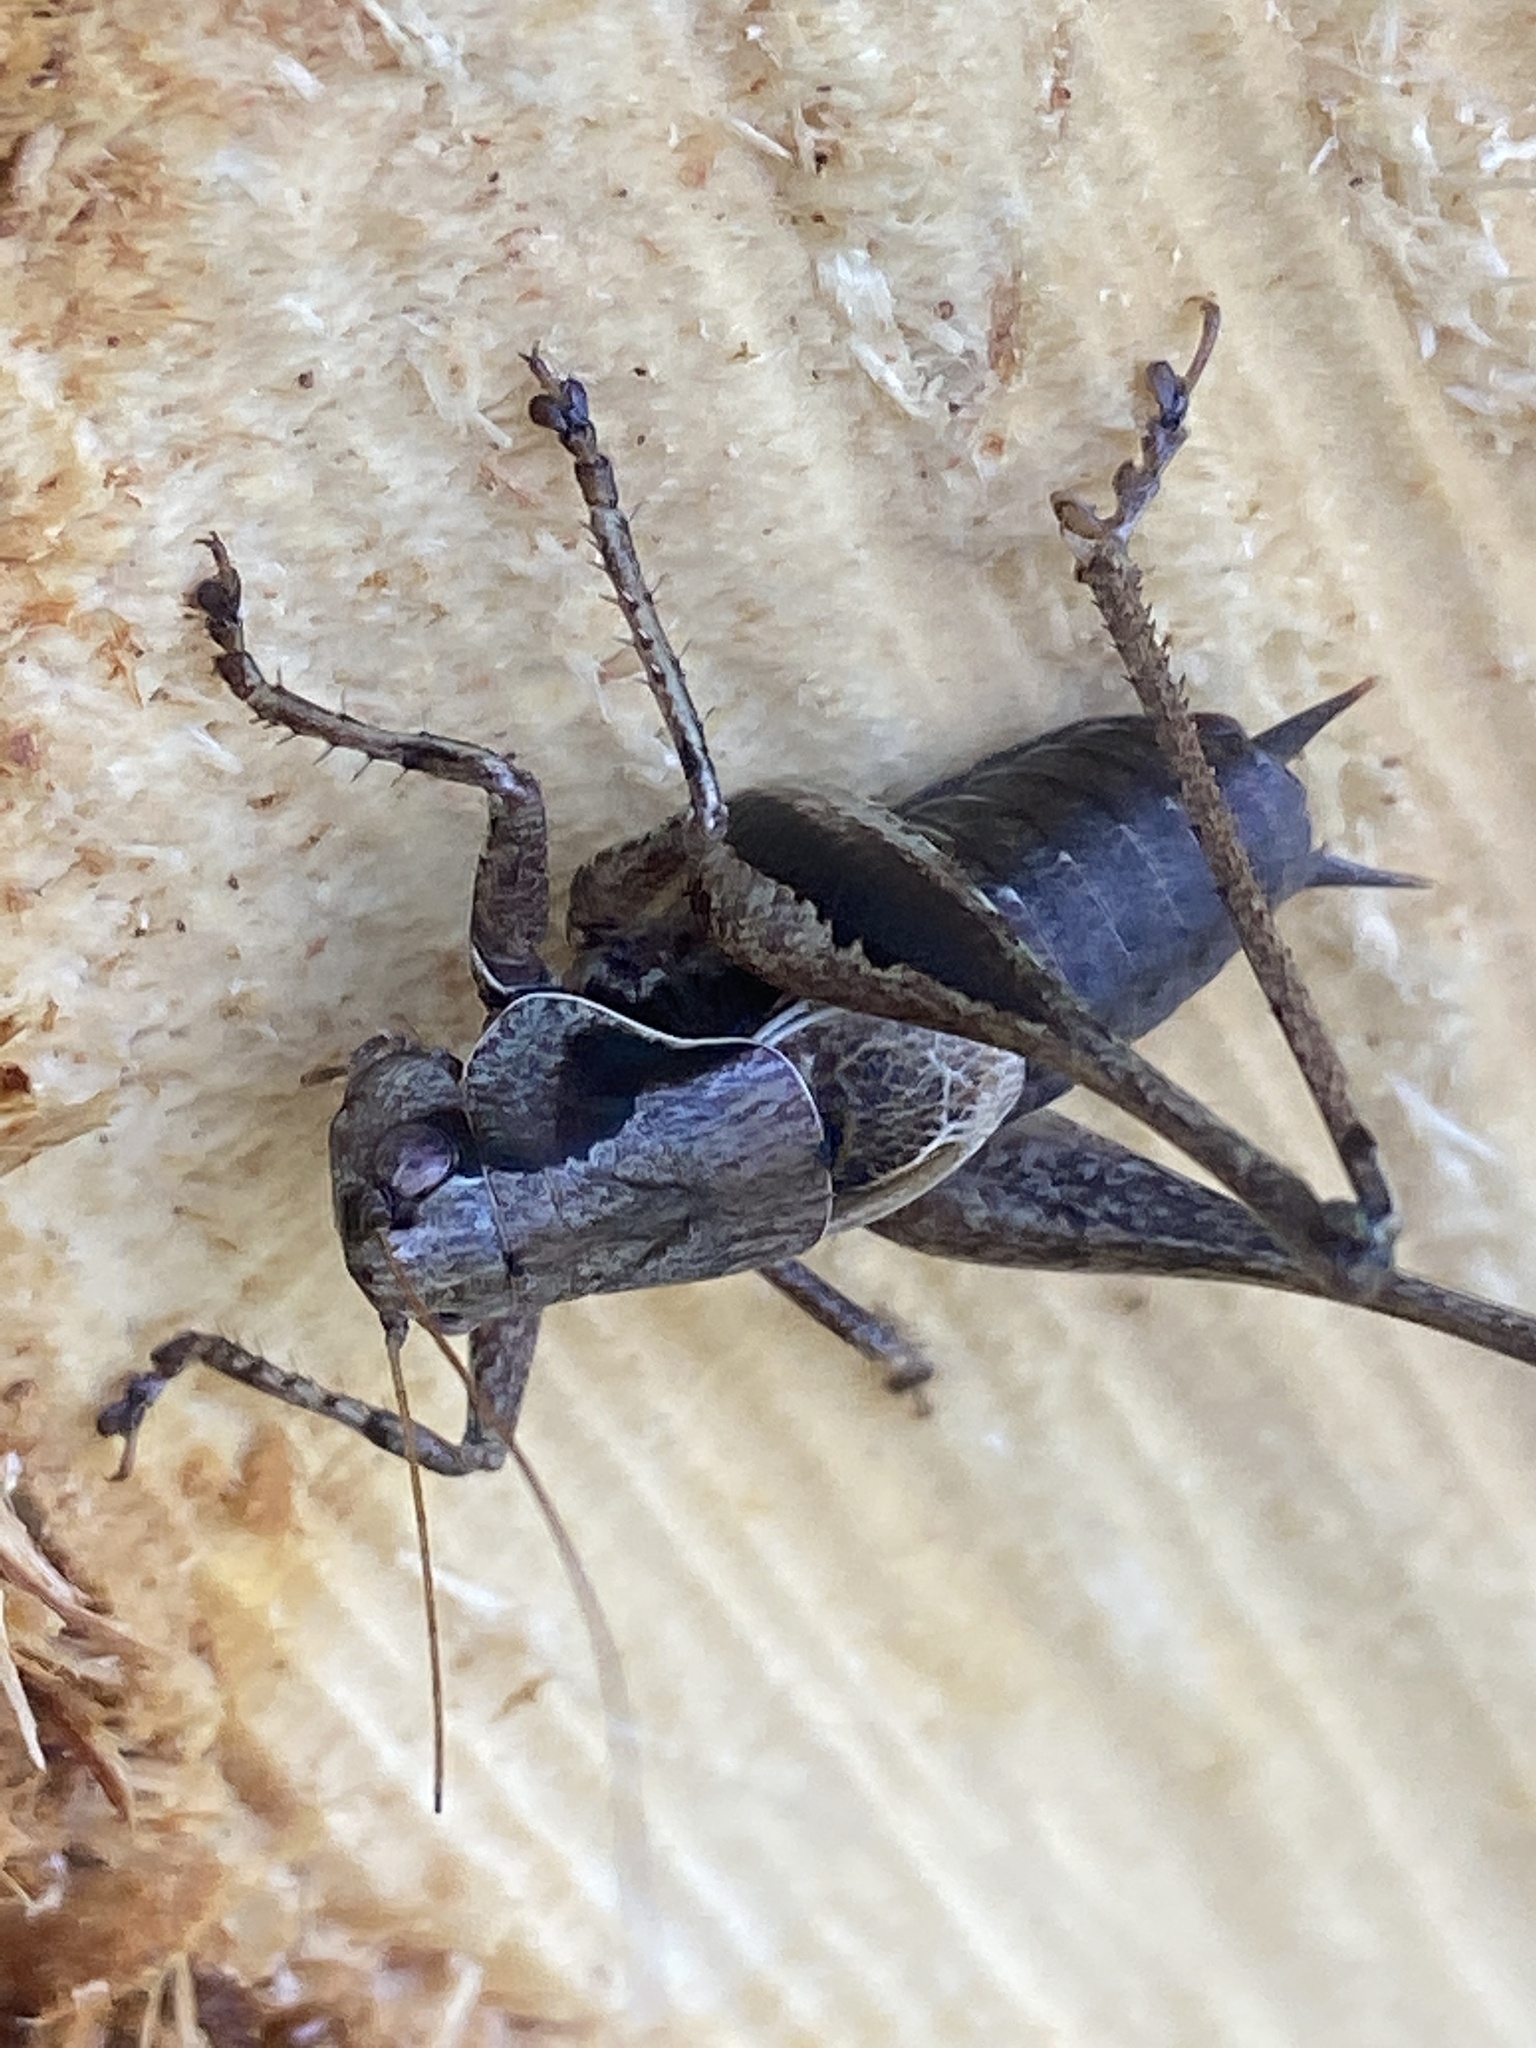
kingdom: Animalia
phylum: Arthropoda
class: Insecta
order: Orthoptera
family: Tettigoniidae
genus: Pholidoptera
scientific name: Pholidoptera griseoaptera
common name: Dark bush-cricket
